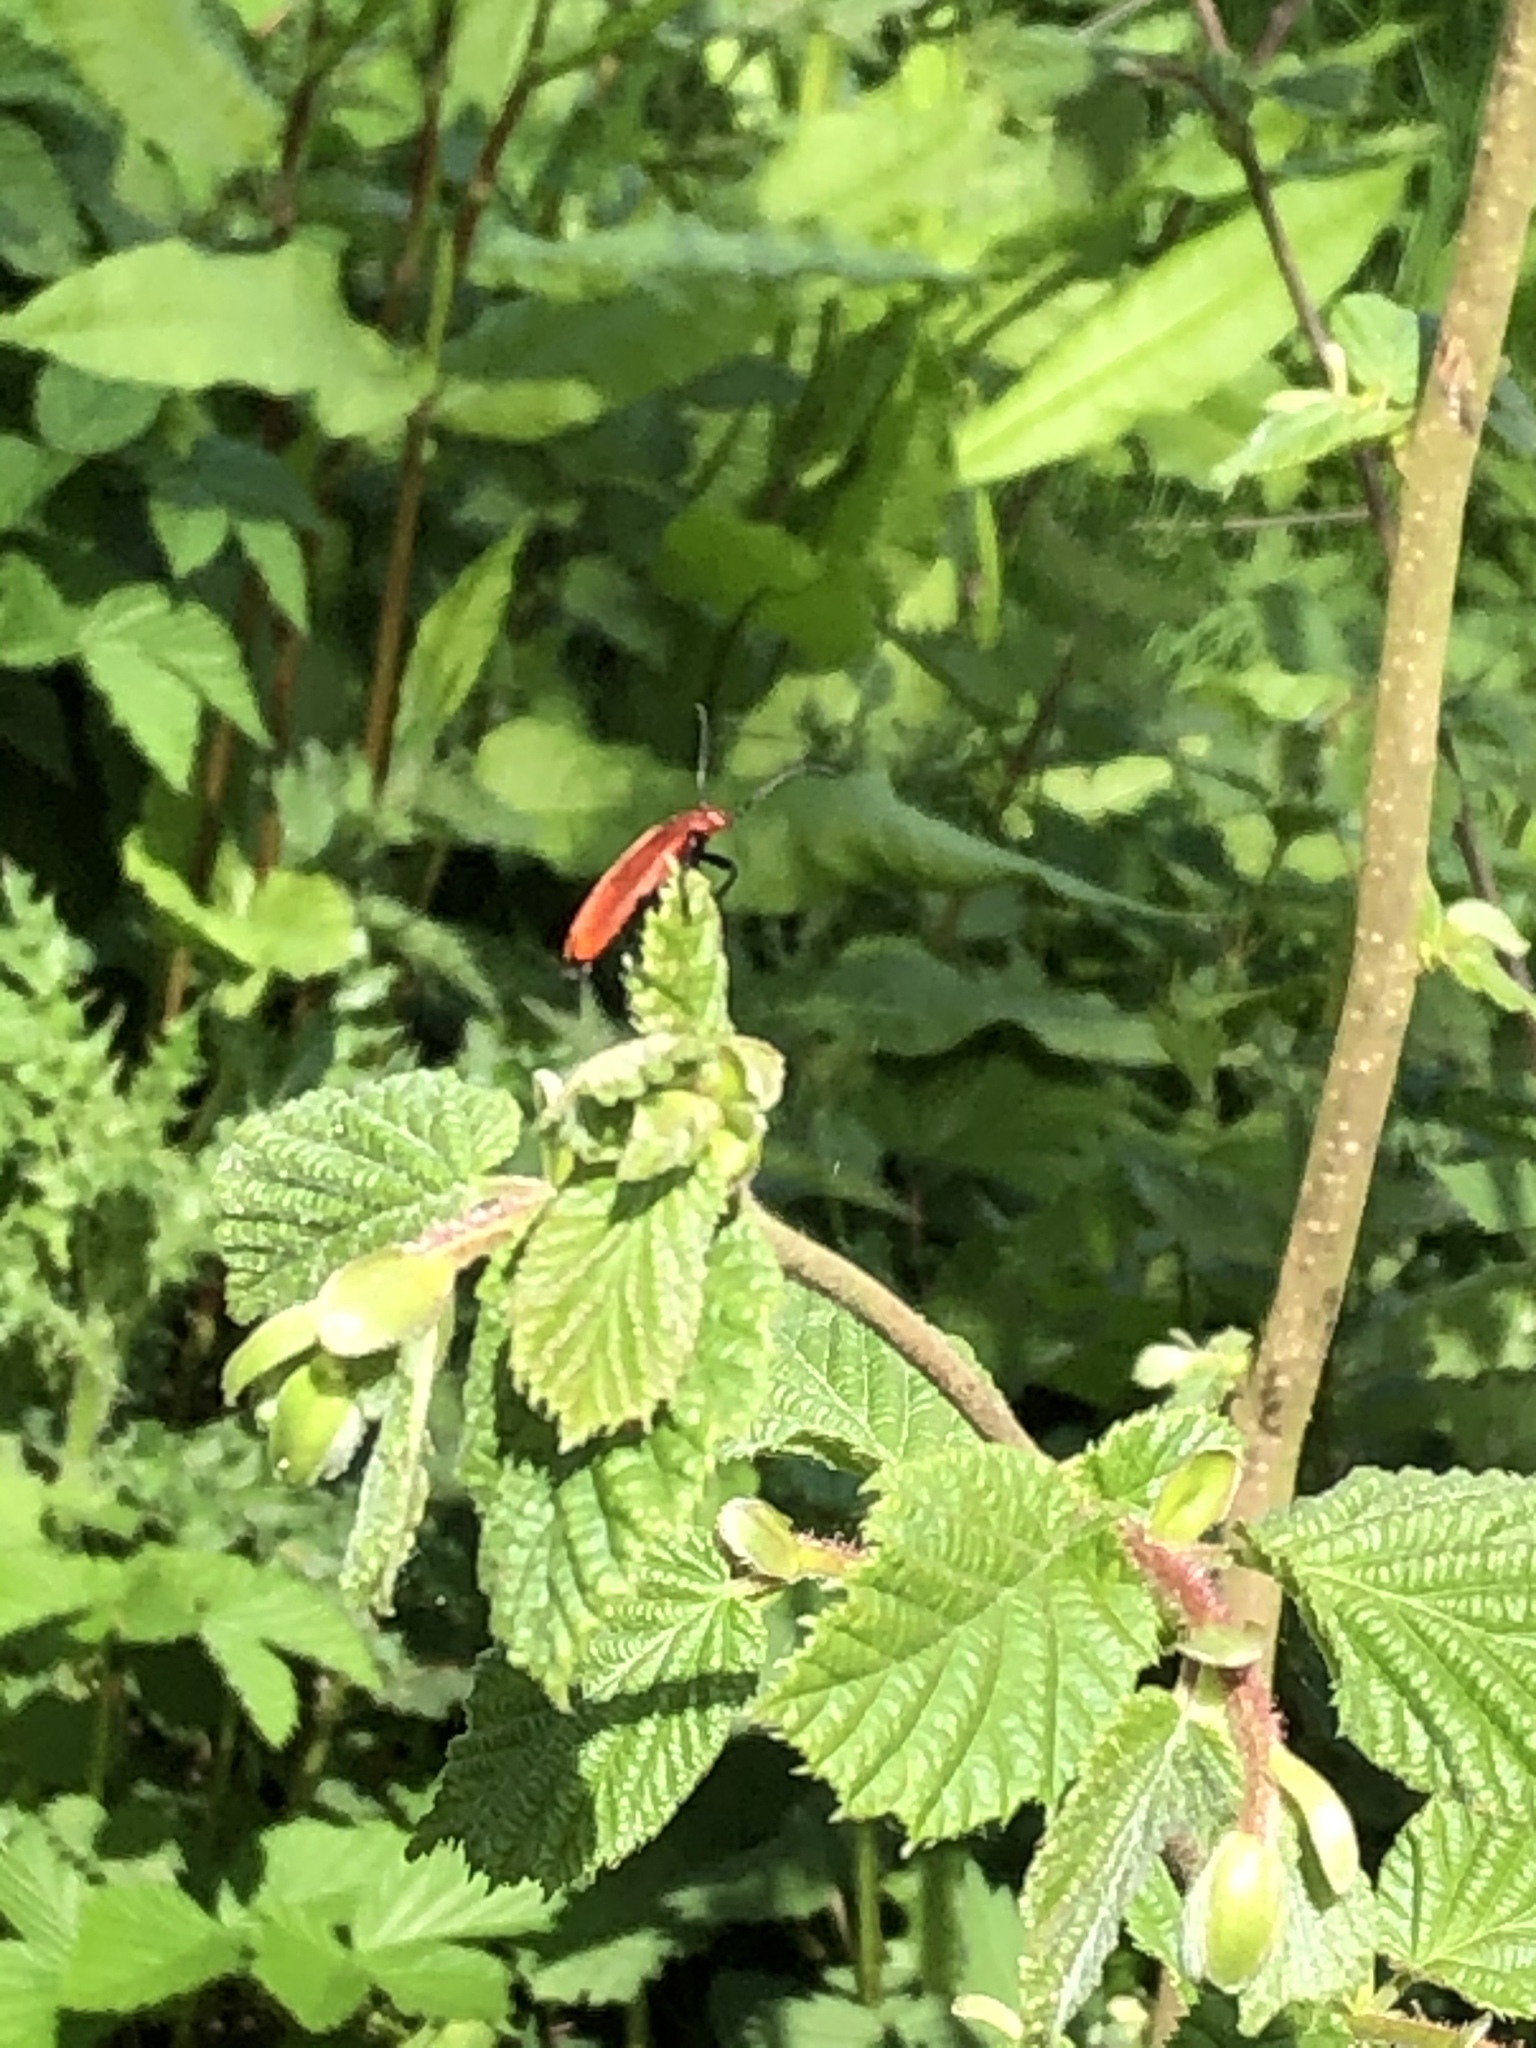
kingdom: Animalia
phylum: Arthropoda
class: Insecta
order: Coleoptera
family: Pyrochroidae
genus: Pyrochroa
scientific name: Pyrochroa serraticornis
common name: Red-headed cardinal beetle
